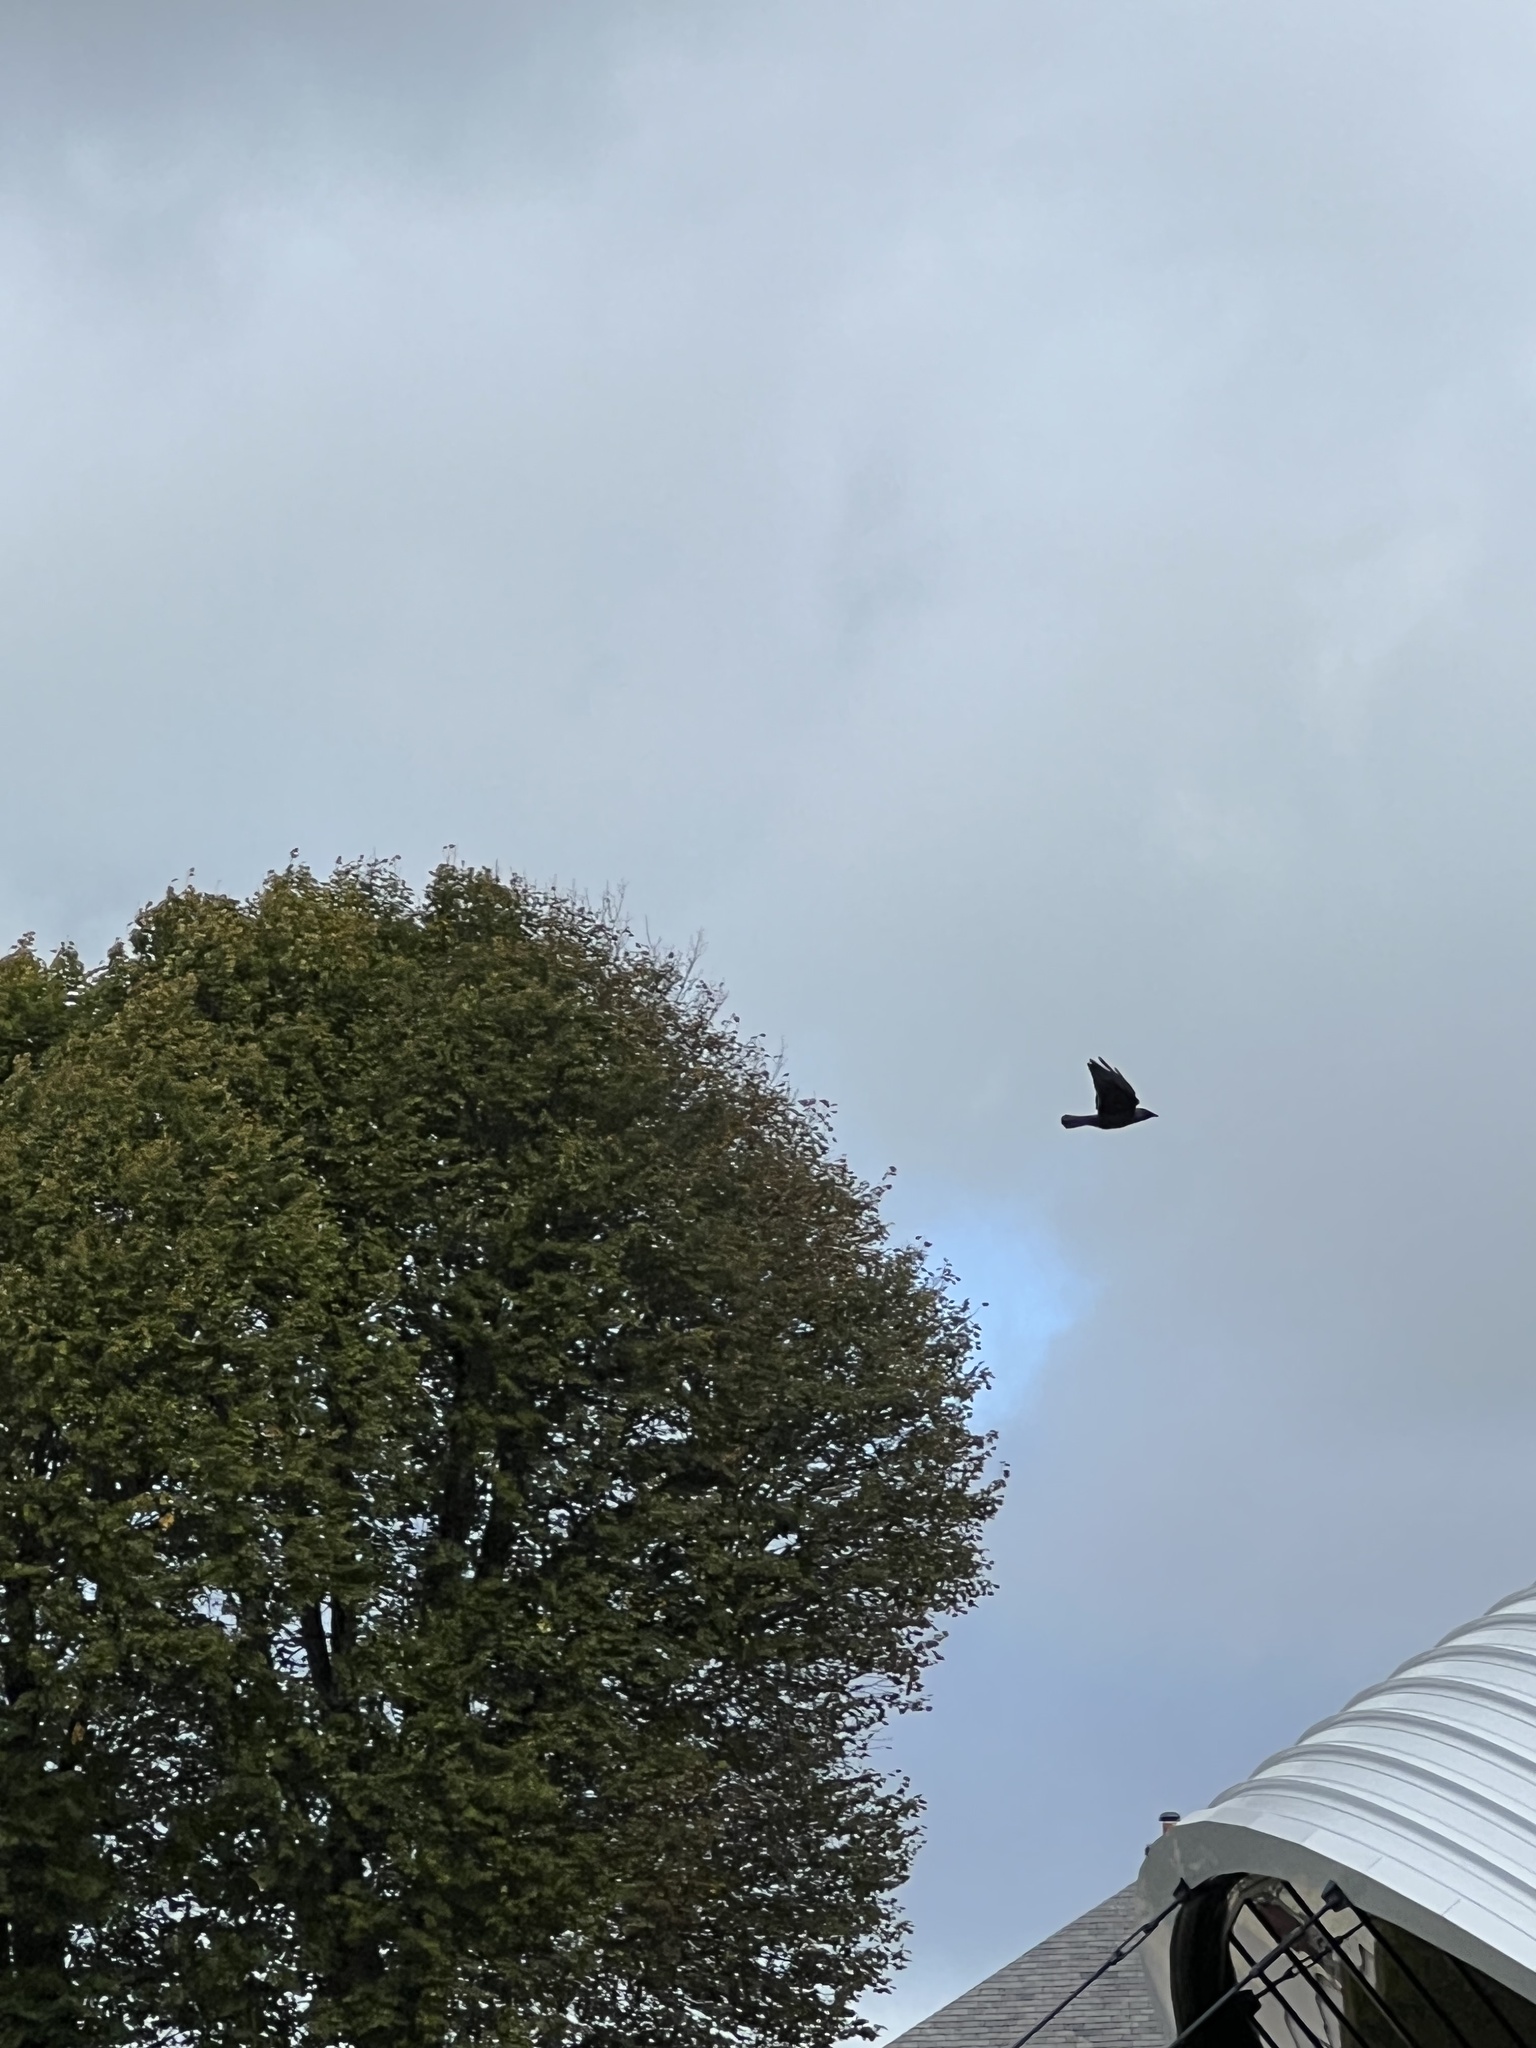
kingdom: Animalia
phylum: Chordata
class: Aves
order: Passeriformes
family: Corvidae
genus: Coloeus
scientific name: Coloeus monedula
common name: Western jackdaw
